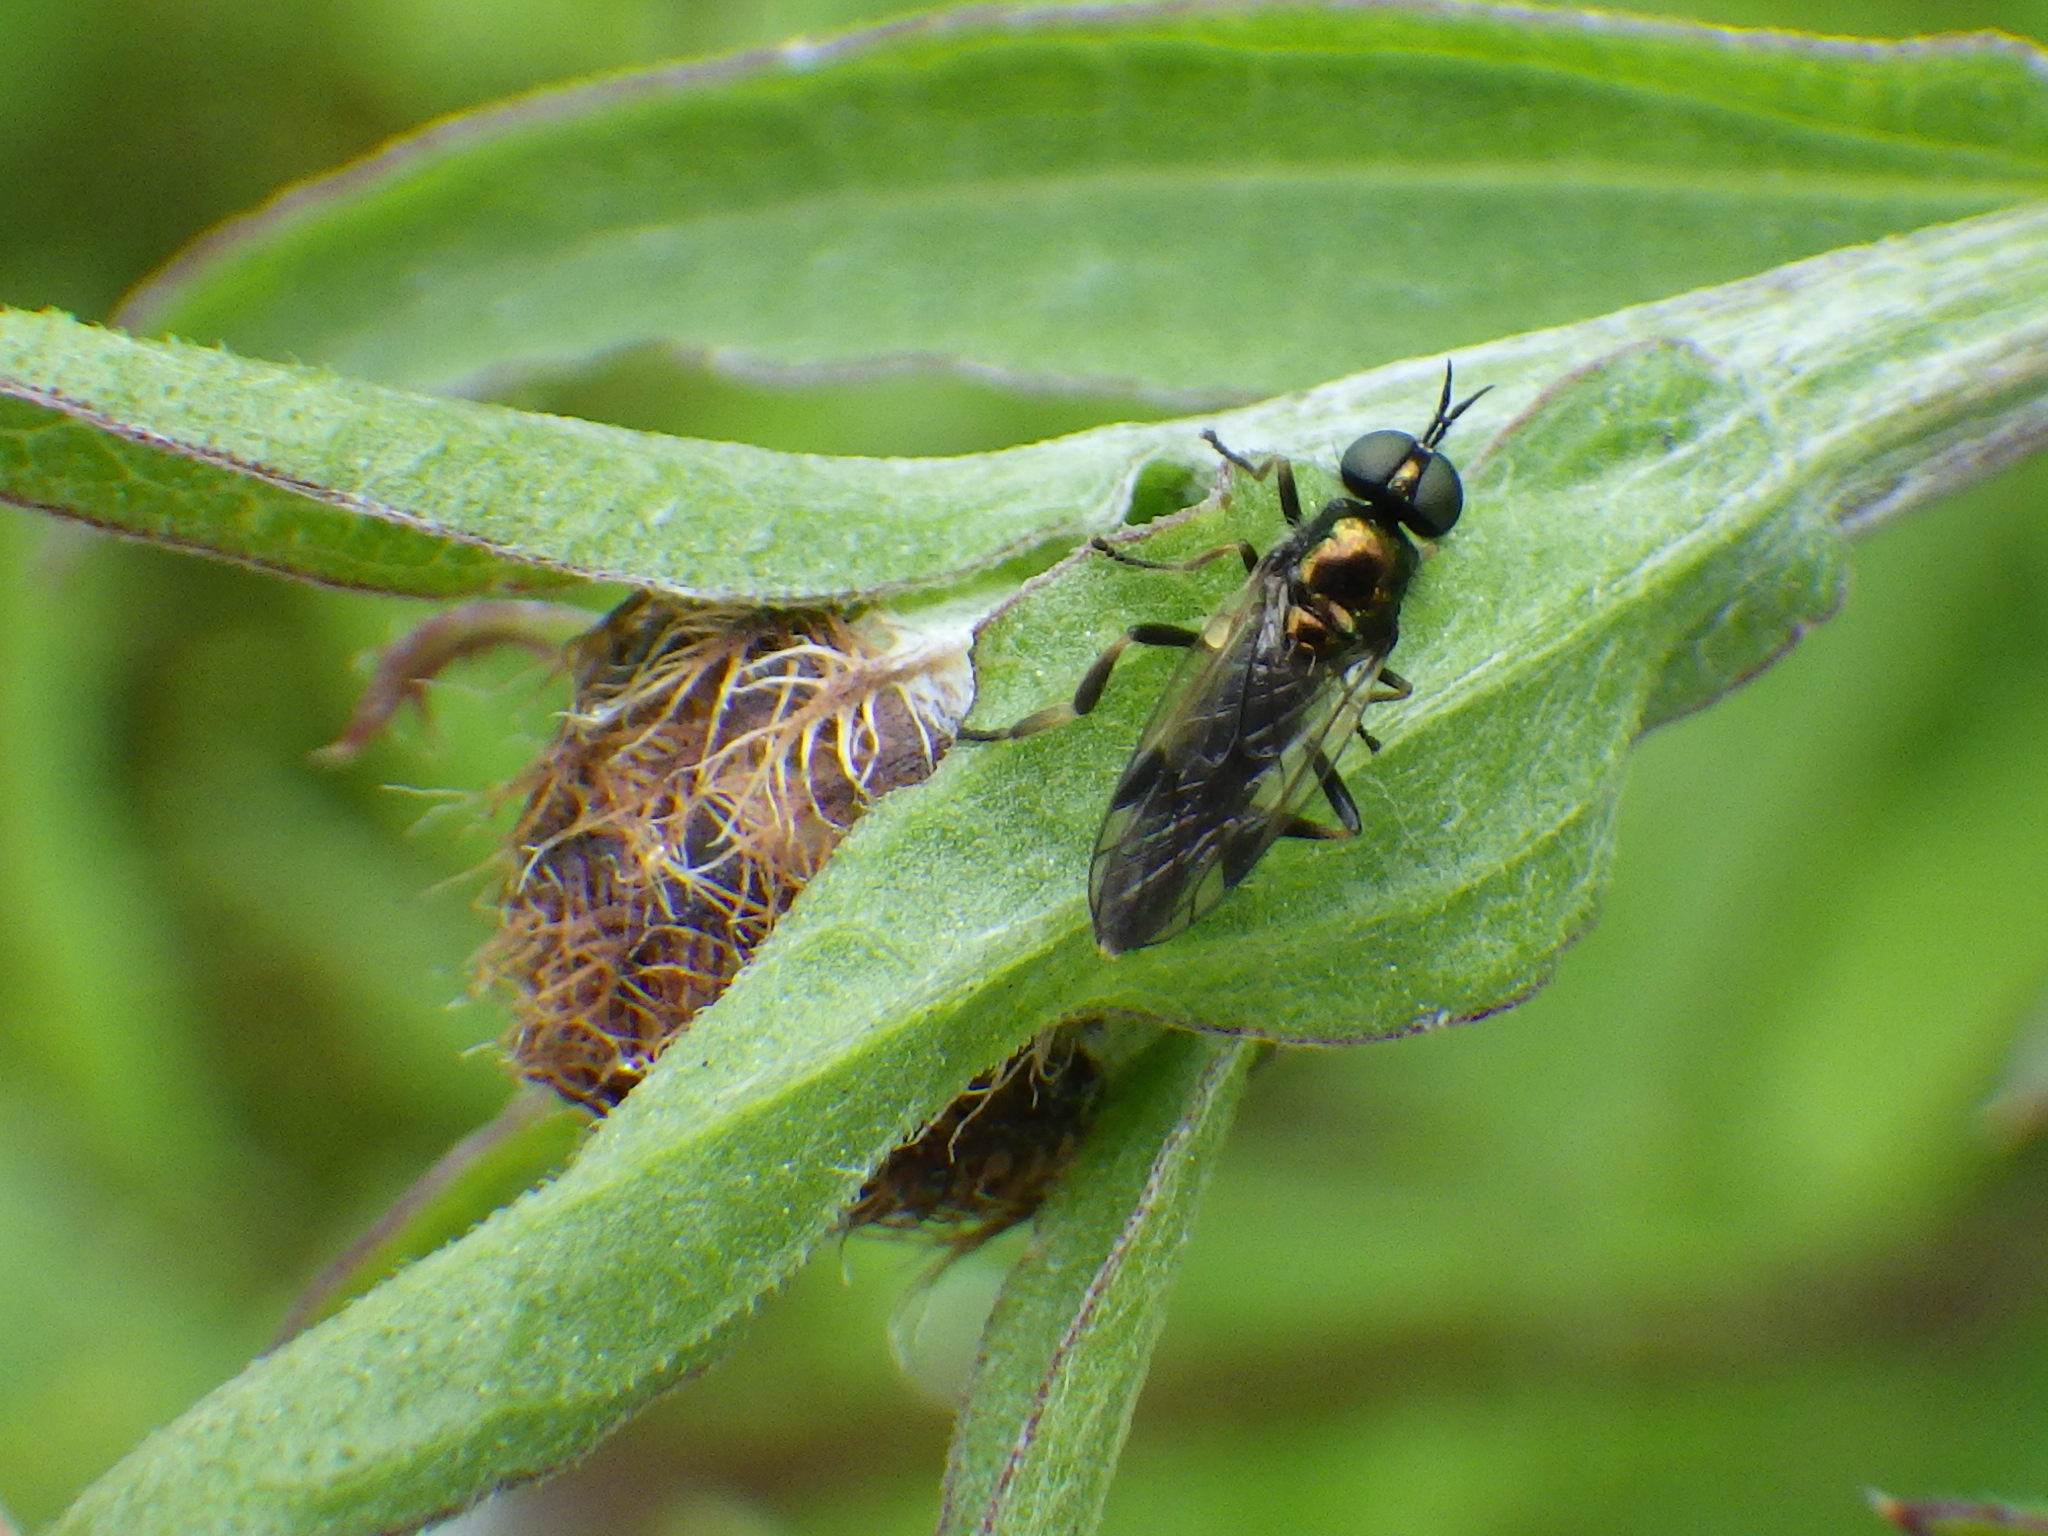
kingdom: Animalia
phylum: Arthropoda
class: Insecta
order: Diptera
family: Stratiomyidae
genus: Actina
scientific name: Actina viridis
